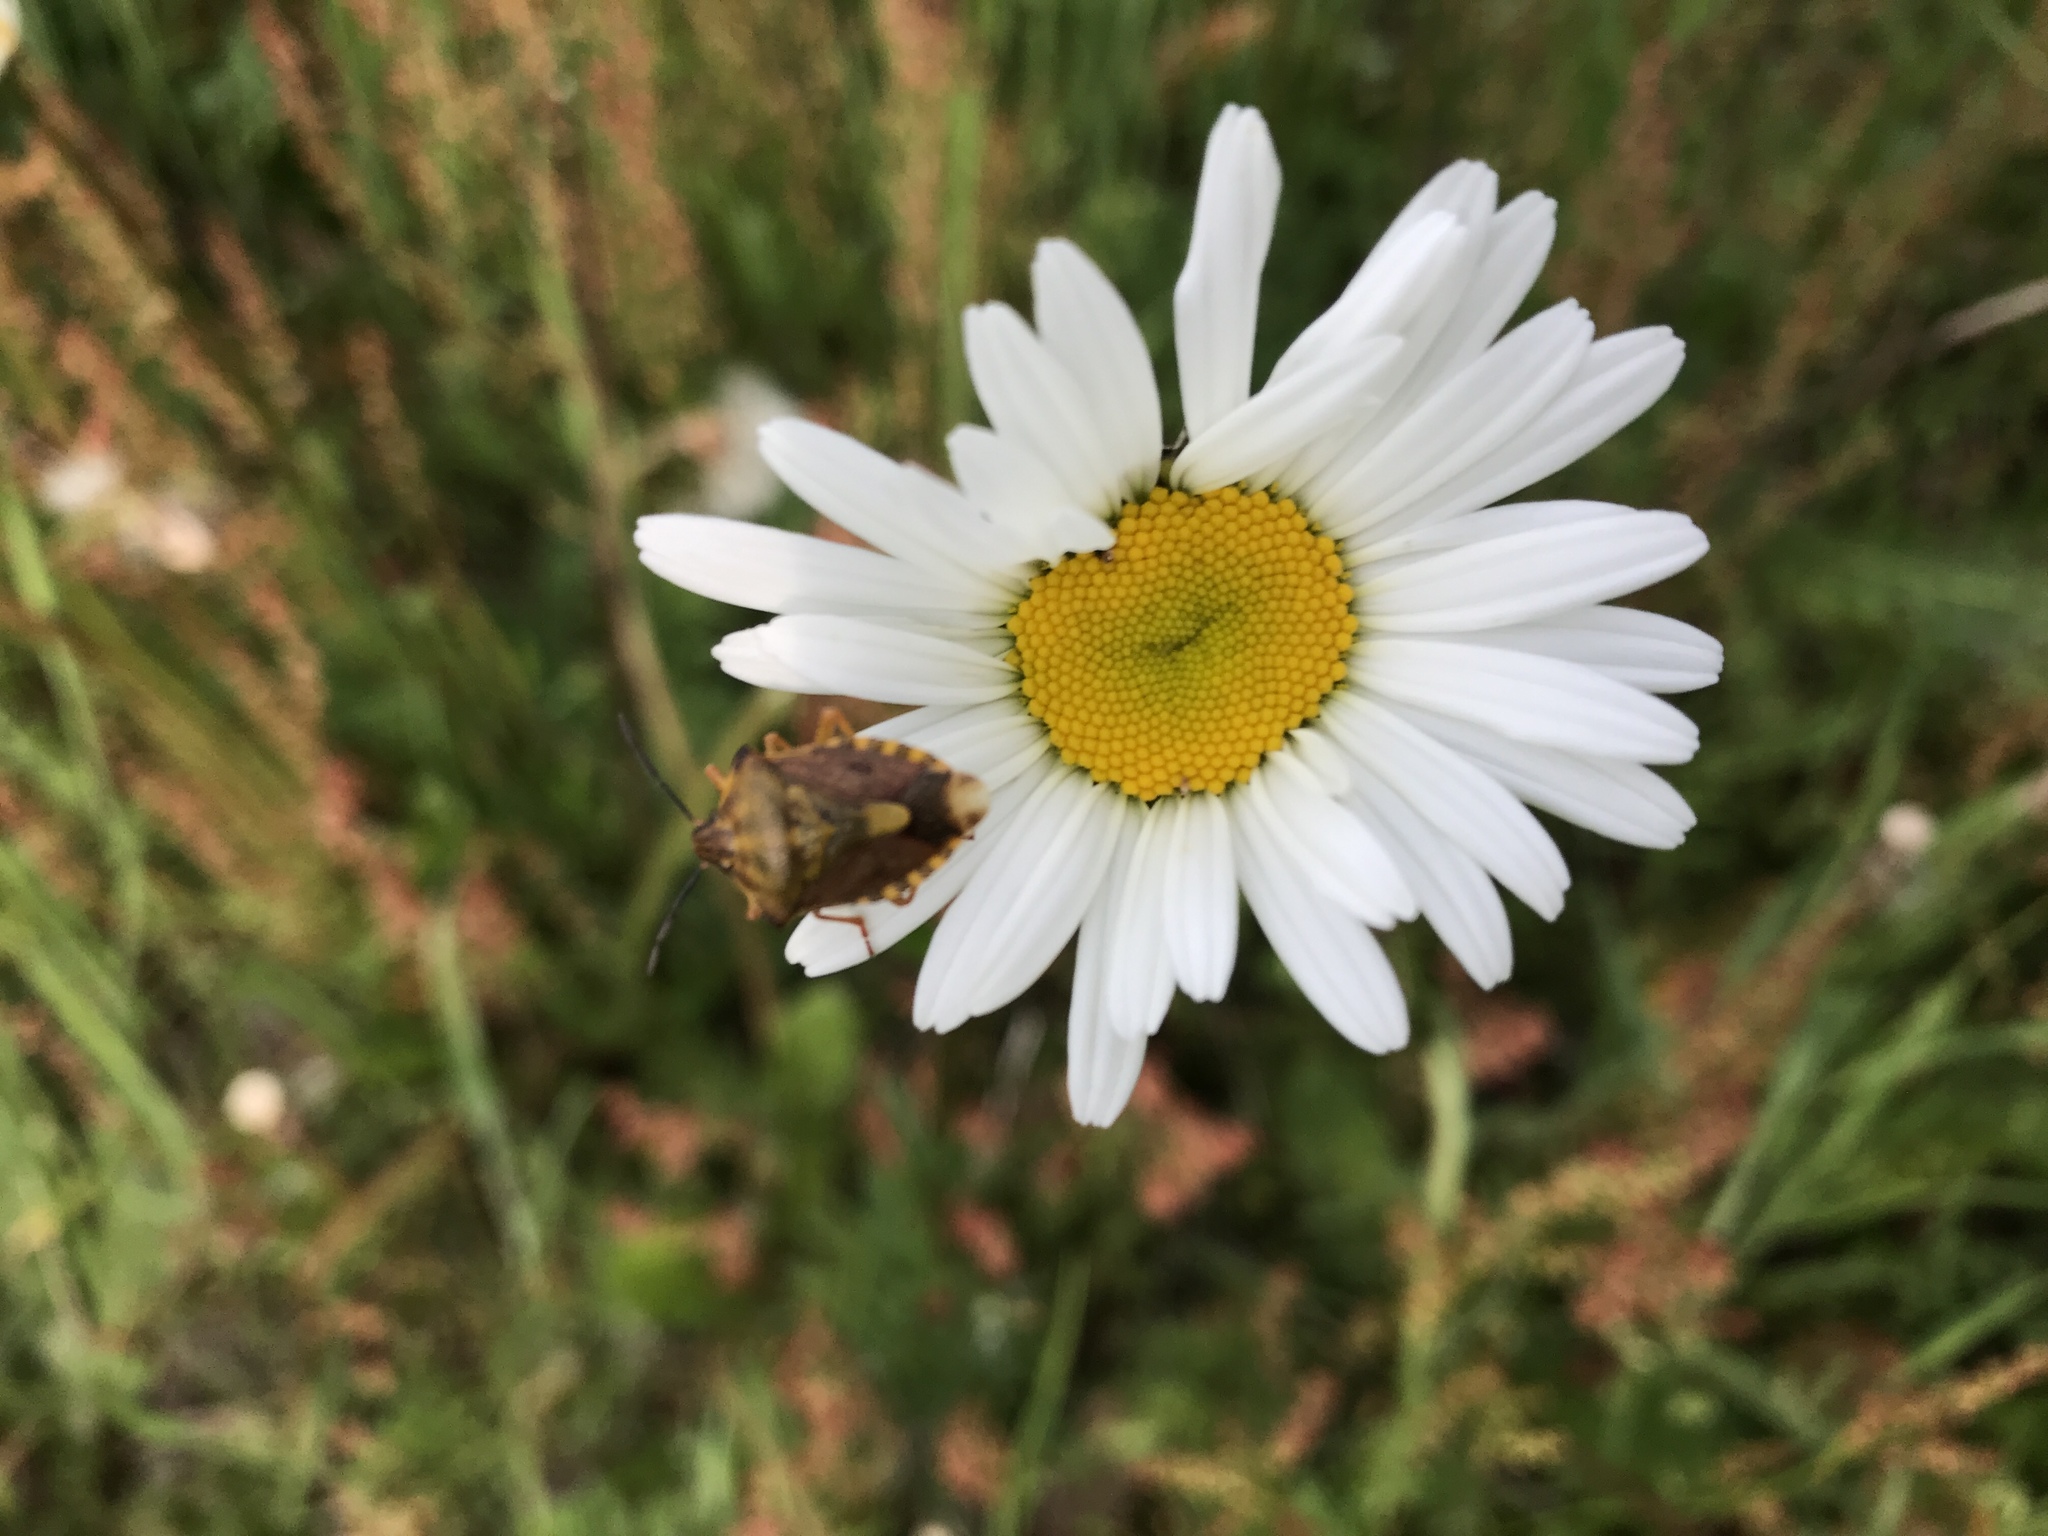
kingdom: Animalia
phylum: Arthropoda
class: Insecta
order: Hemiptera
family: Pentatomidae
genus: Carpocoris
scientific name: Carpocoris purpureipennis
